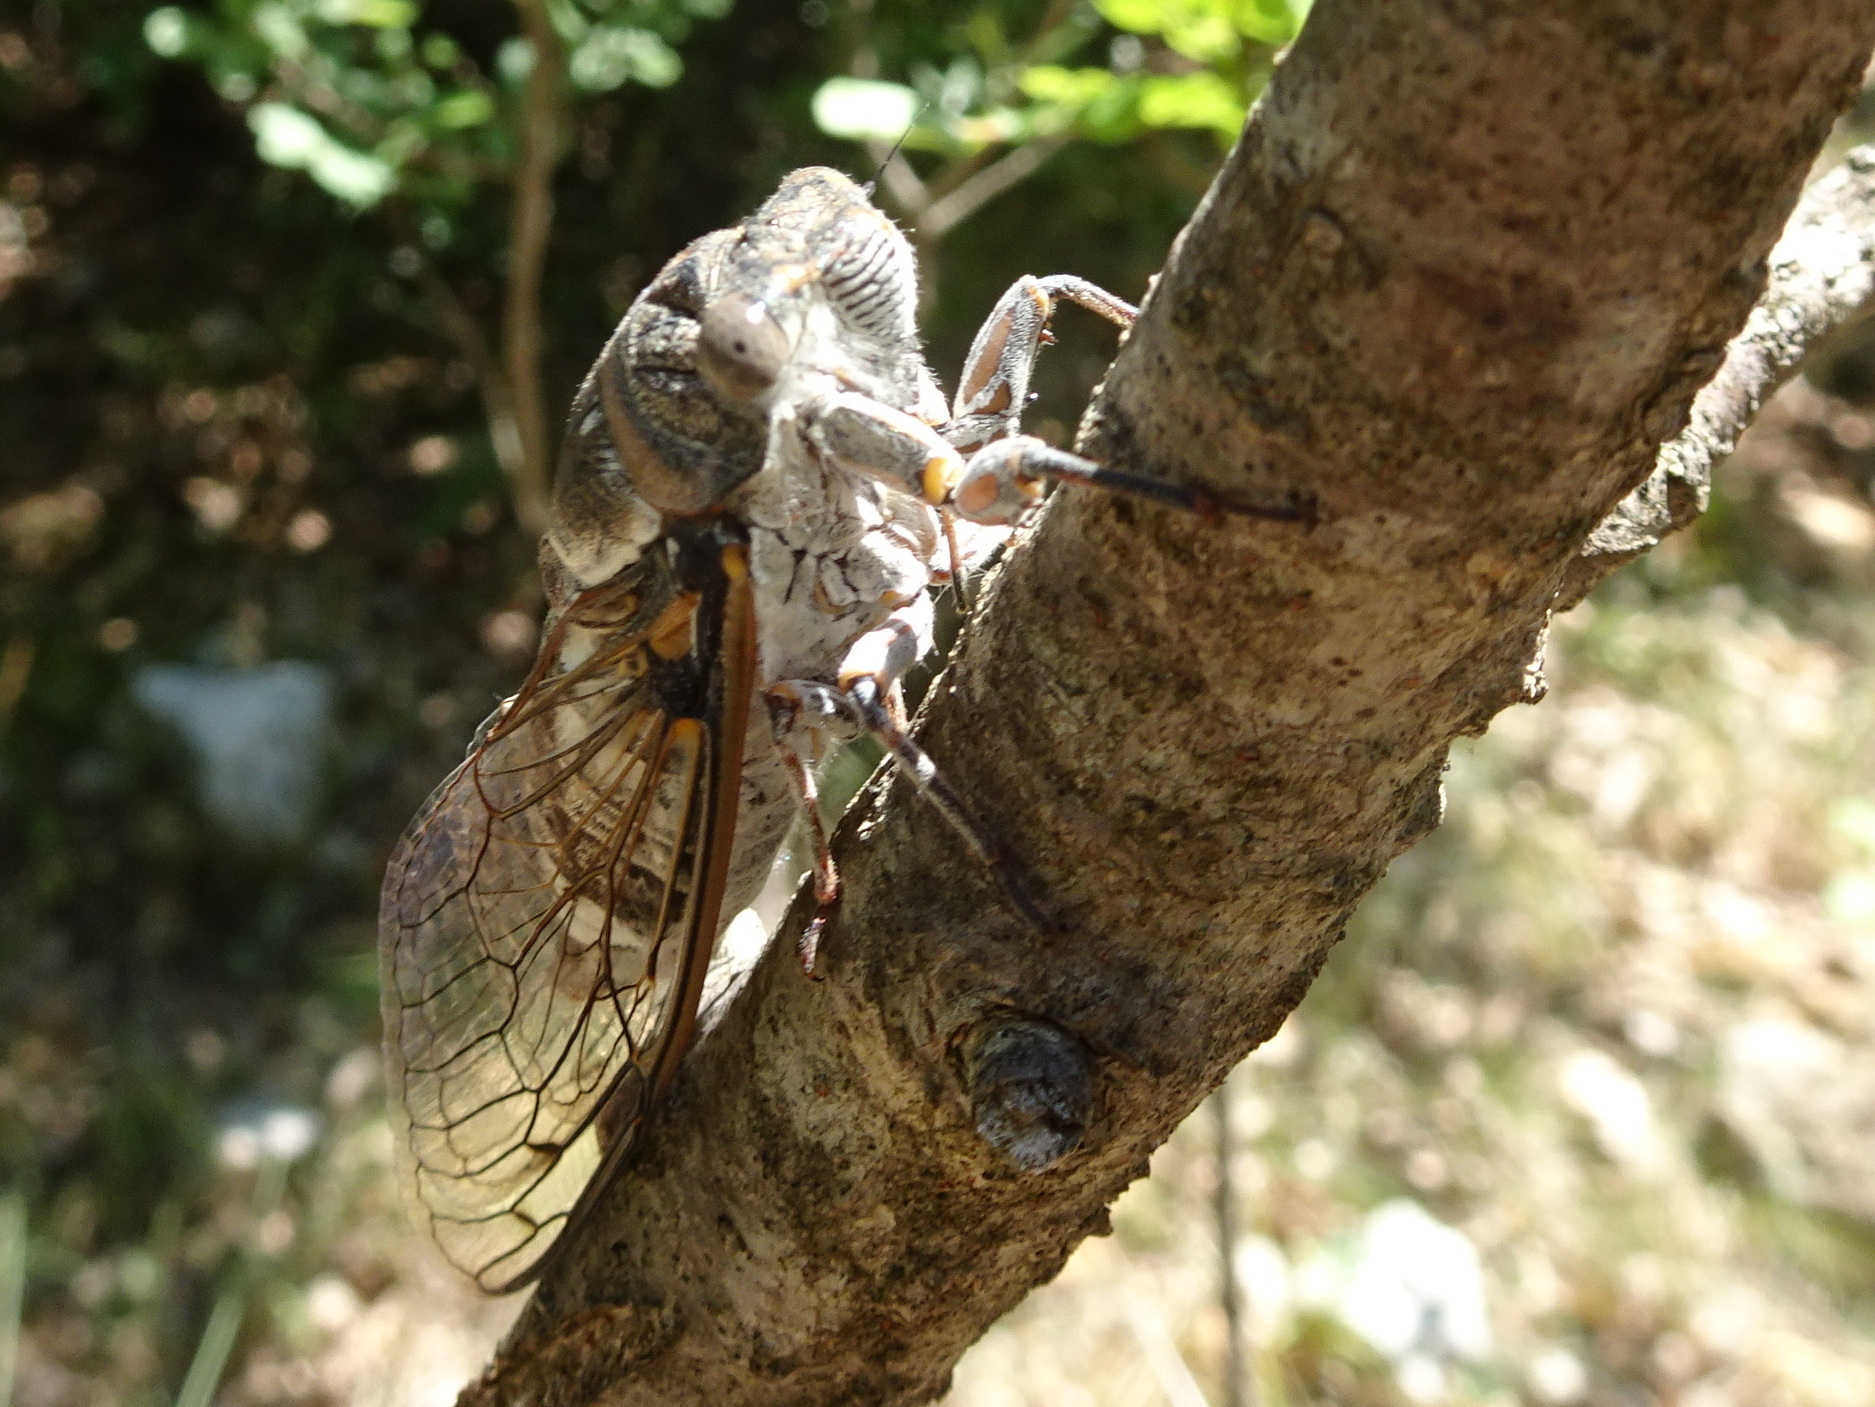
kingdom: Animalia
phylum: Arthropoda
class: Insecta
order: Hemiptera
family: Cicadidae
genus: Lyristes
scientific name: Lyristes plebejus
